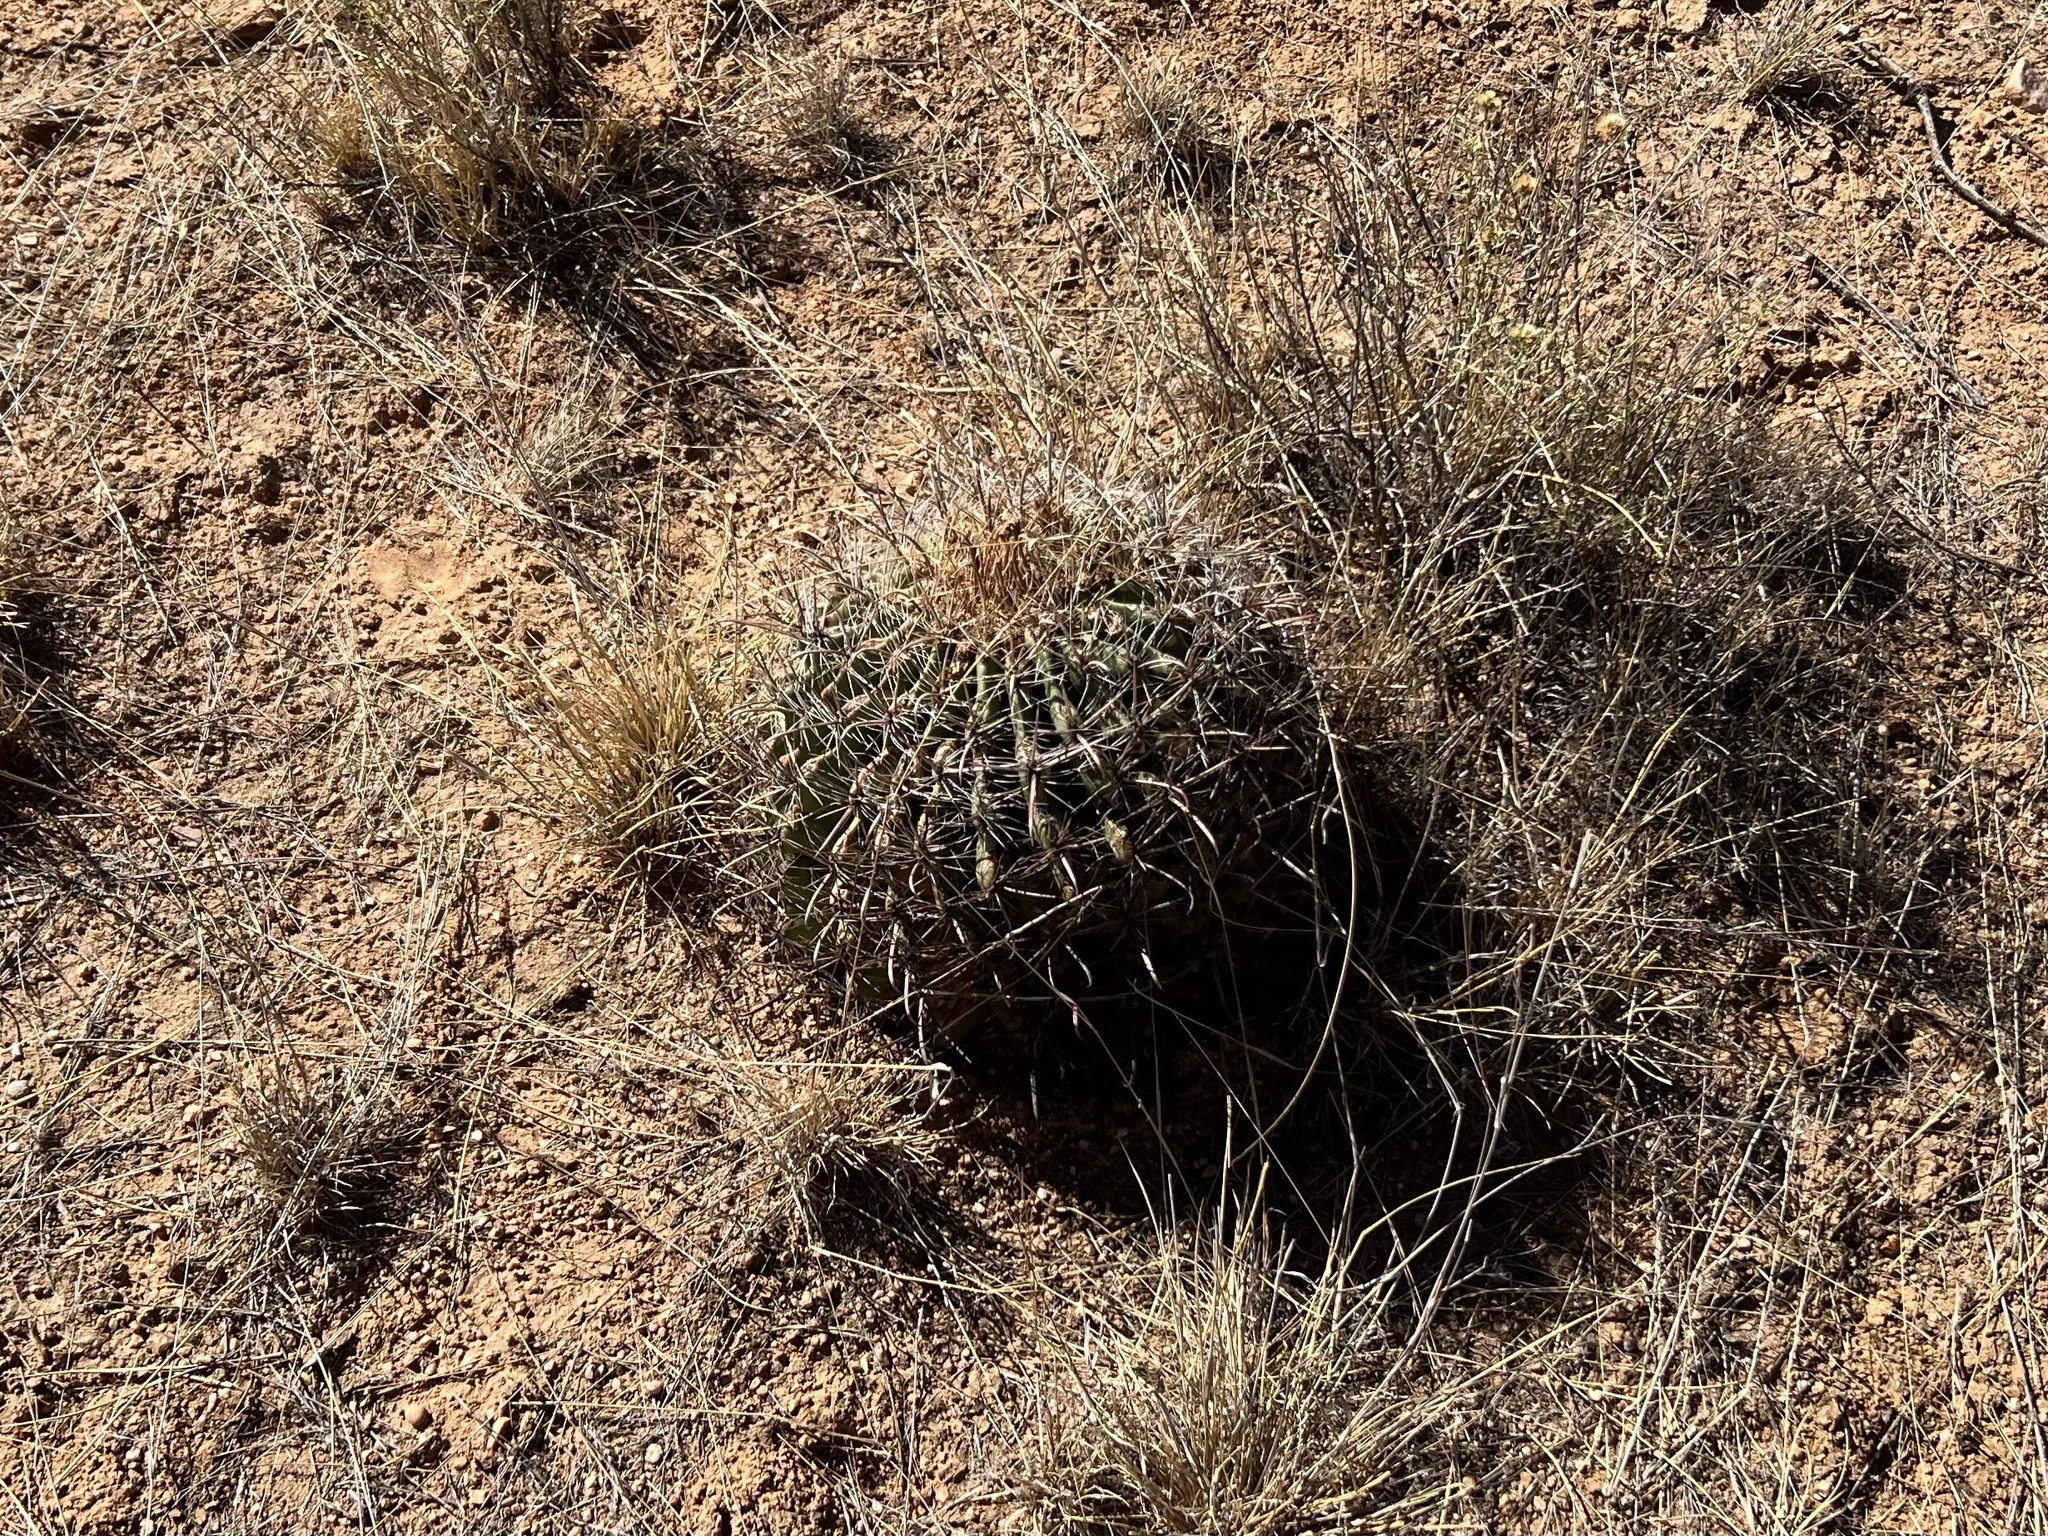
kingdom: Plantae
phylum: Tracheophyta
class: Magnoliopsida
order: Caryophyllales
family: Cactaceae
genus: Ferocactus
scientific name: Ferocactus wislizeni
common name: Candy barrel cactus
